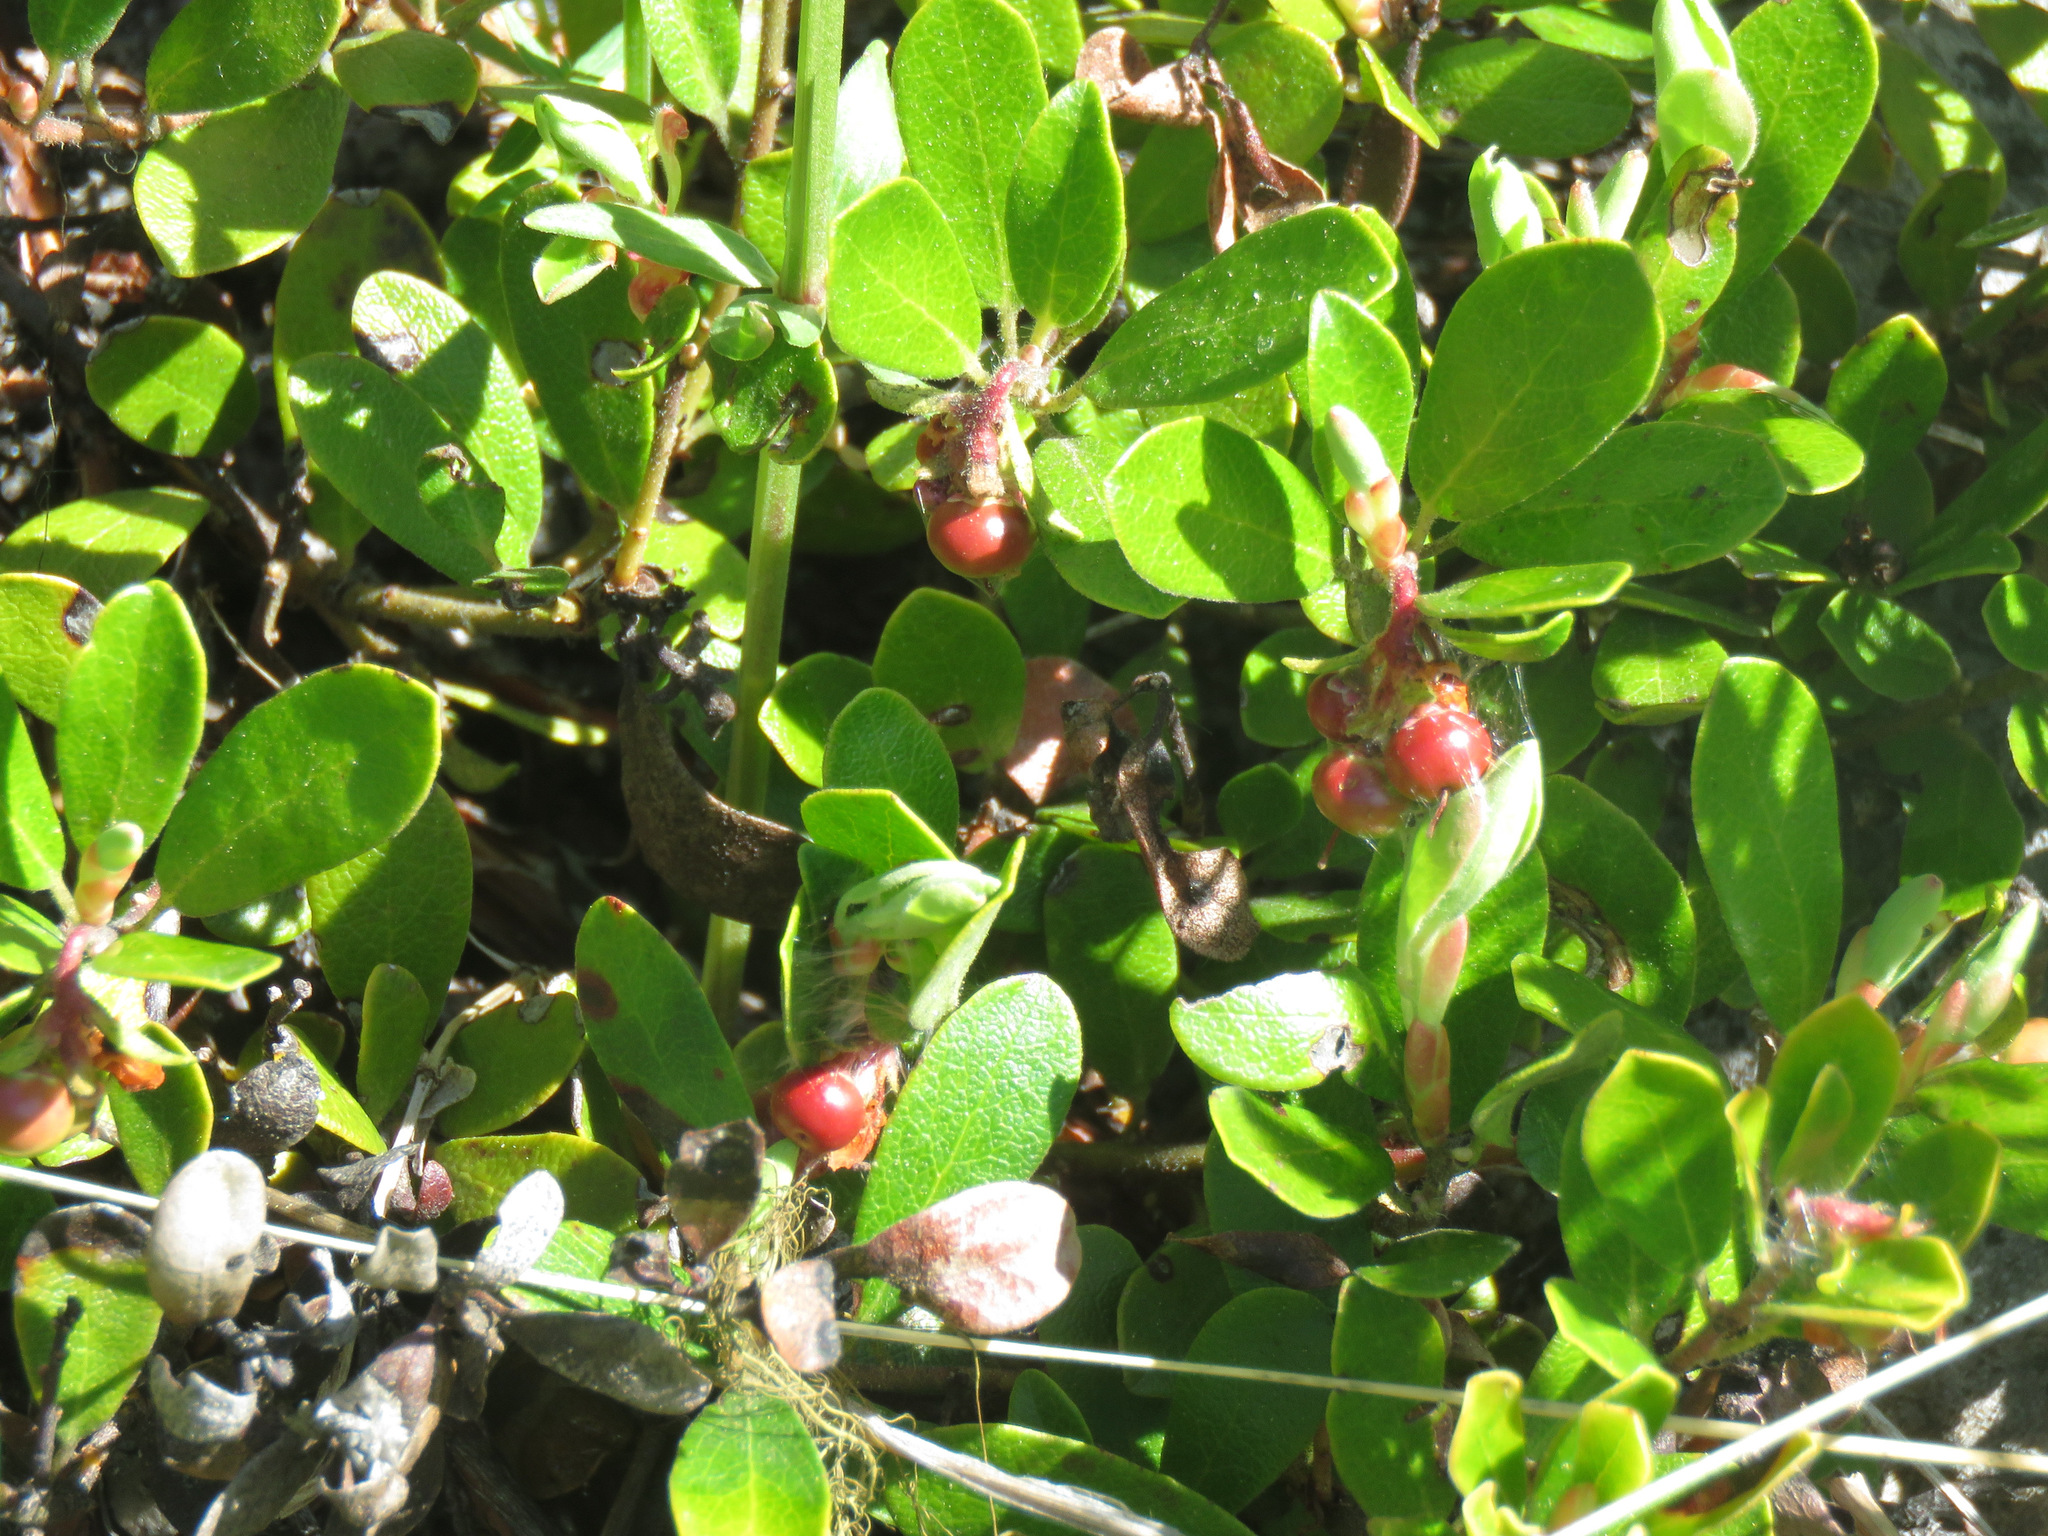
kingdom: Plantae
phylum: Tracheophyta
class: Magnoliopsida
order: Ericales
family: Ericaceae
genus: Arctostaphylos
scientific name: Arctostaphylos uva-ursi
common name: Bearberry
